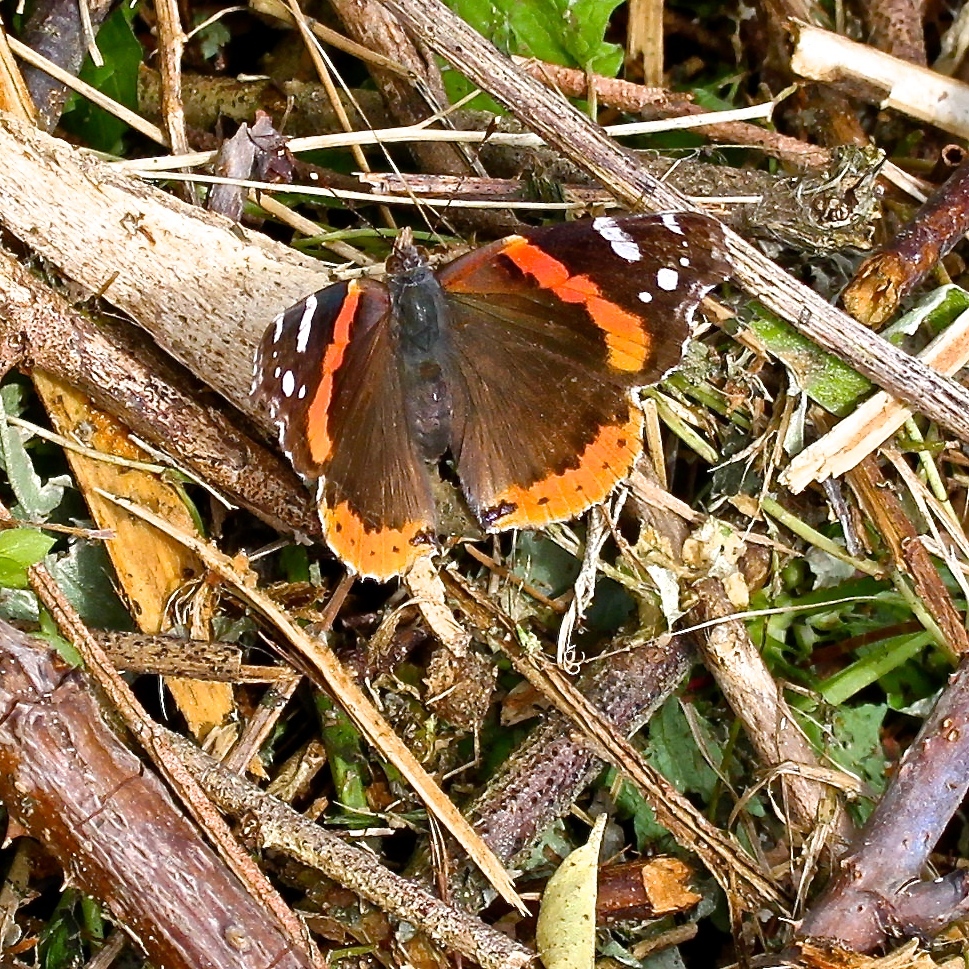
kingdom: Animalia
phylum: Arthropoda
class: Insecta
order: Lepidoptera
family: Nymphalidae
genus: Vanessa
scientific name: Vanessa atalanta
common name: Red admiral
